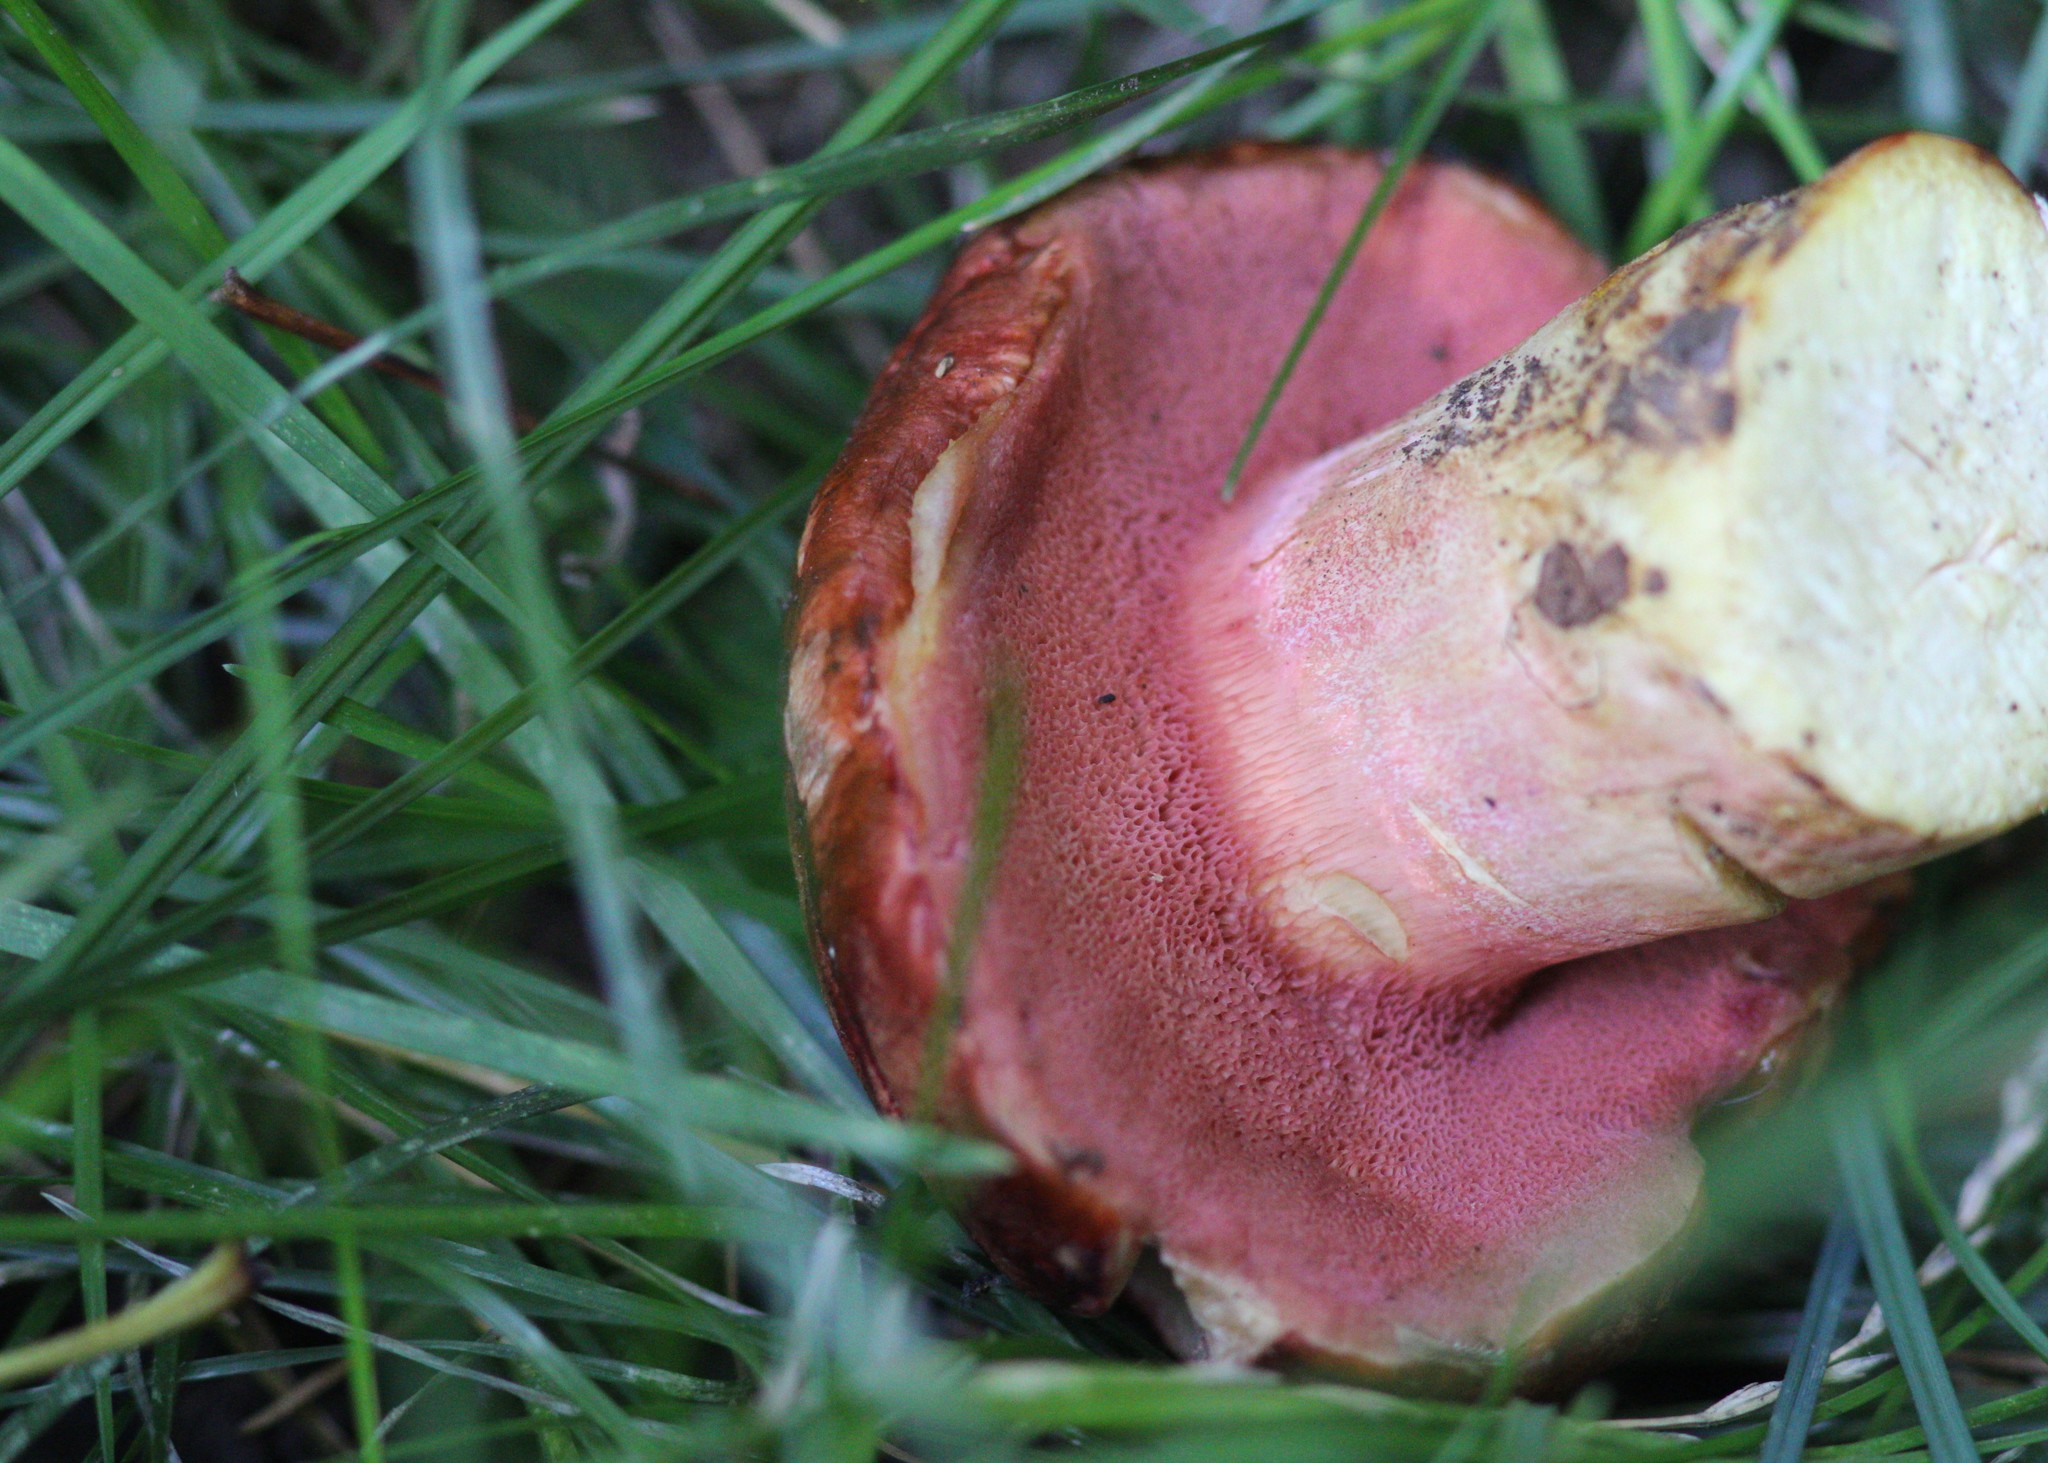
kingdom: Fungi
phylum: Basidiomycota
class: Agaricomycetes
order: Boletales
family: Boletaceae
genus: Chalciporus
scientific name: Chalciporus rubinus
